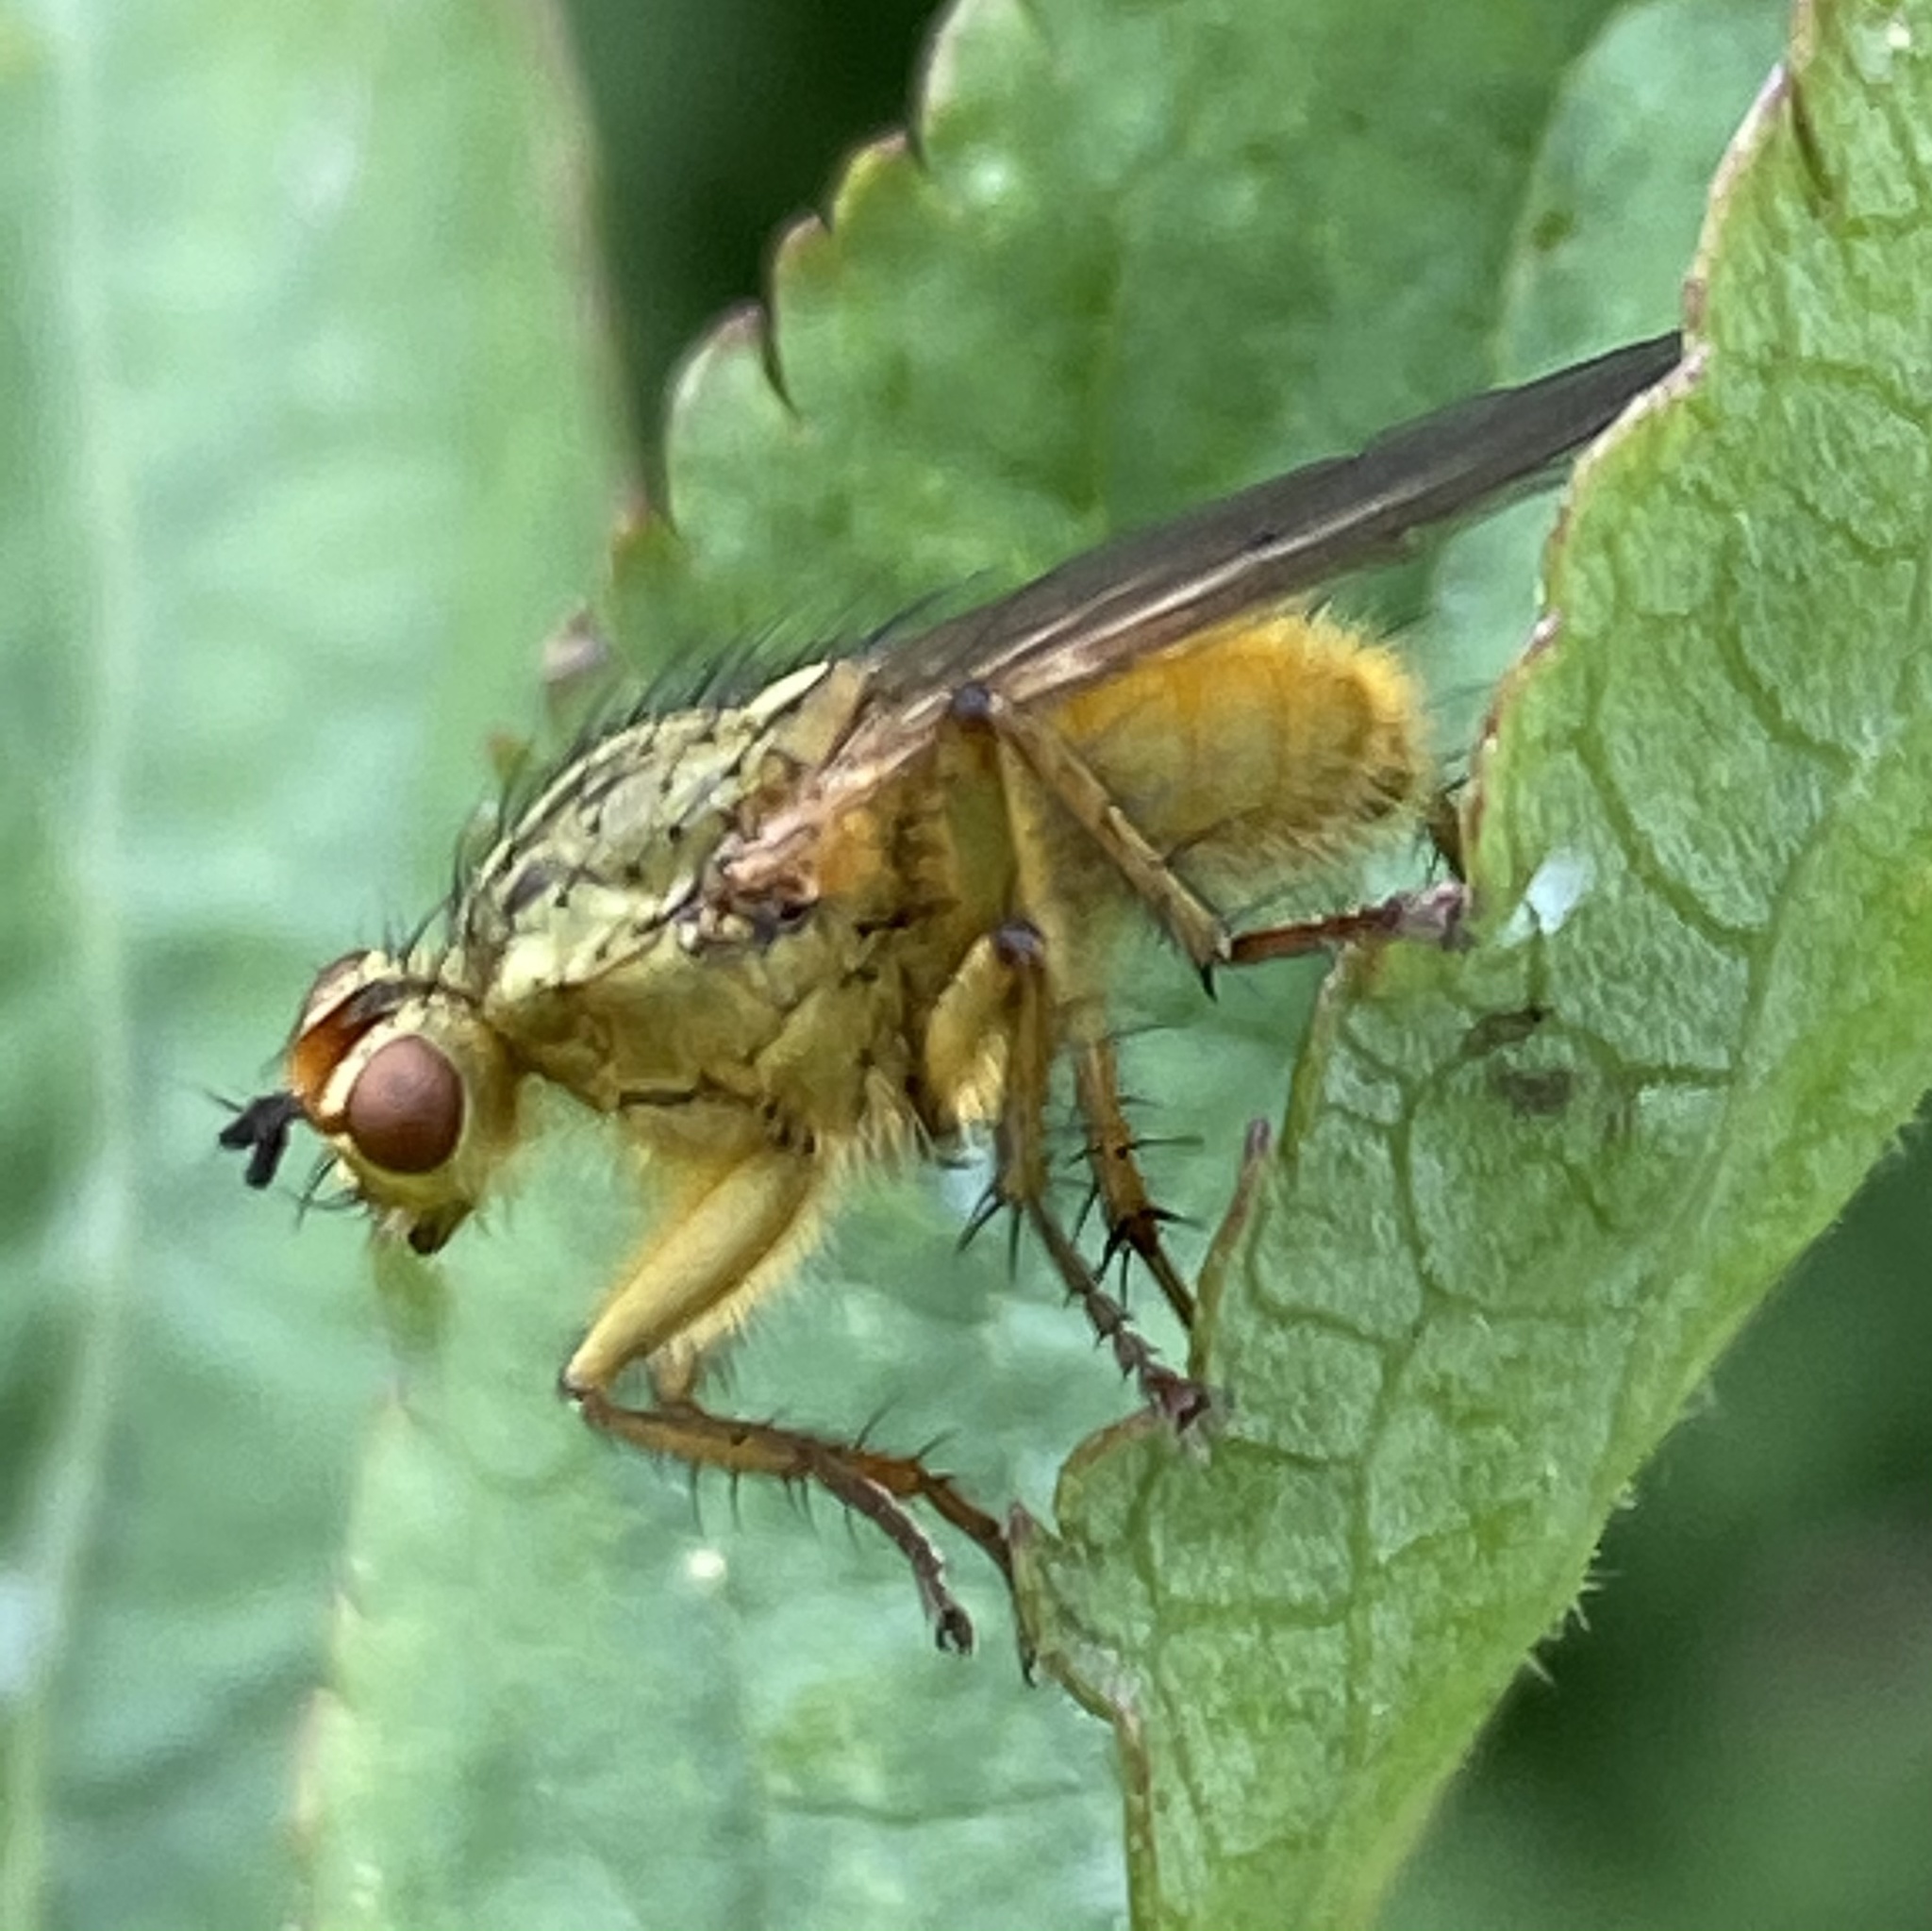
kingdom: Animalia
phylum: Arthropoda
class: Insecta
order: Diptera
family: Scathophagidae
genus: Scathophaga
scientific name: Scathophaga stercoraria
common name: Yellow dung fly
